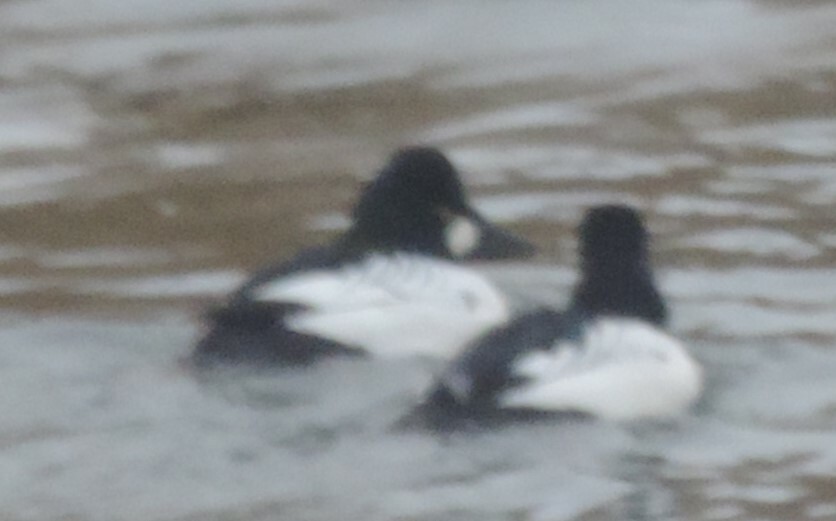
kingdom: Animalia
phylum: Chordata
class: Aves
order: Anseriformes
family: Anatidae
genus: Bucephala
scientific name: Bucephala clangula
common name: Common goldeneye
